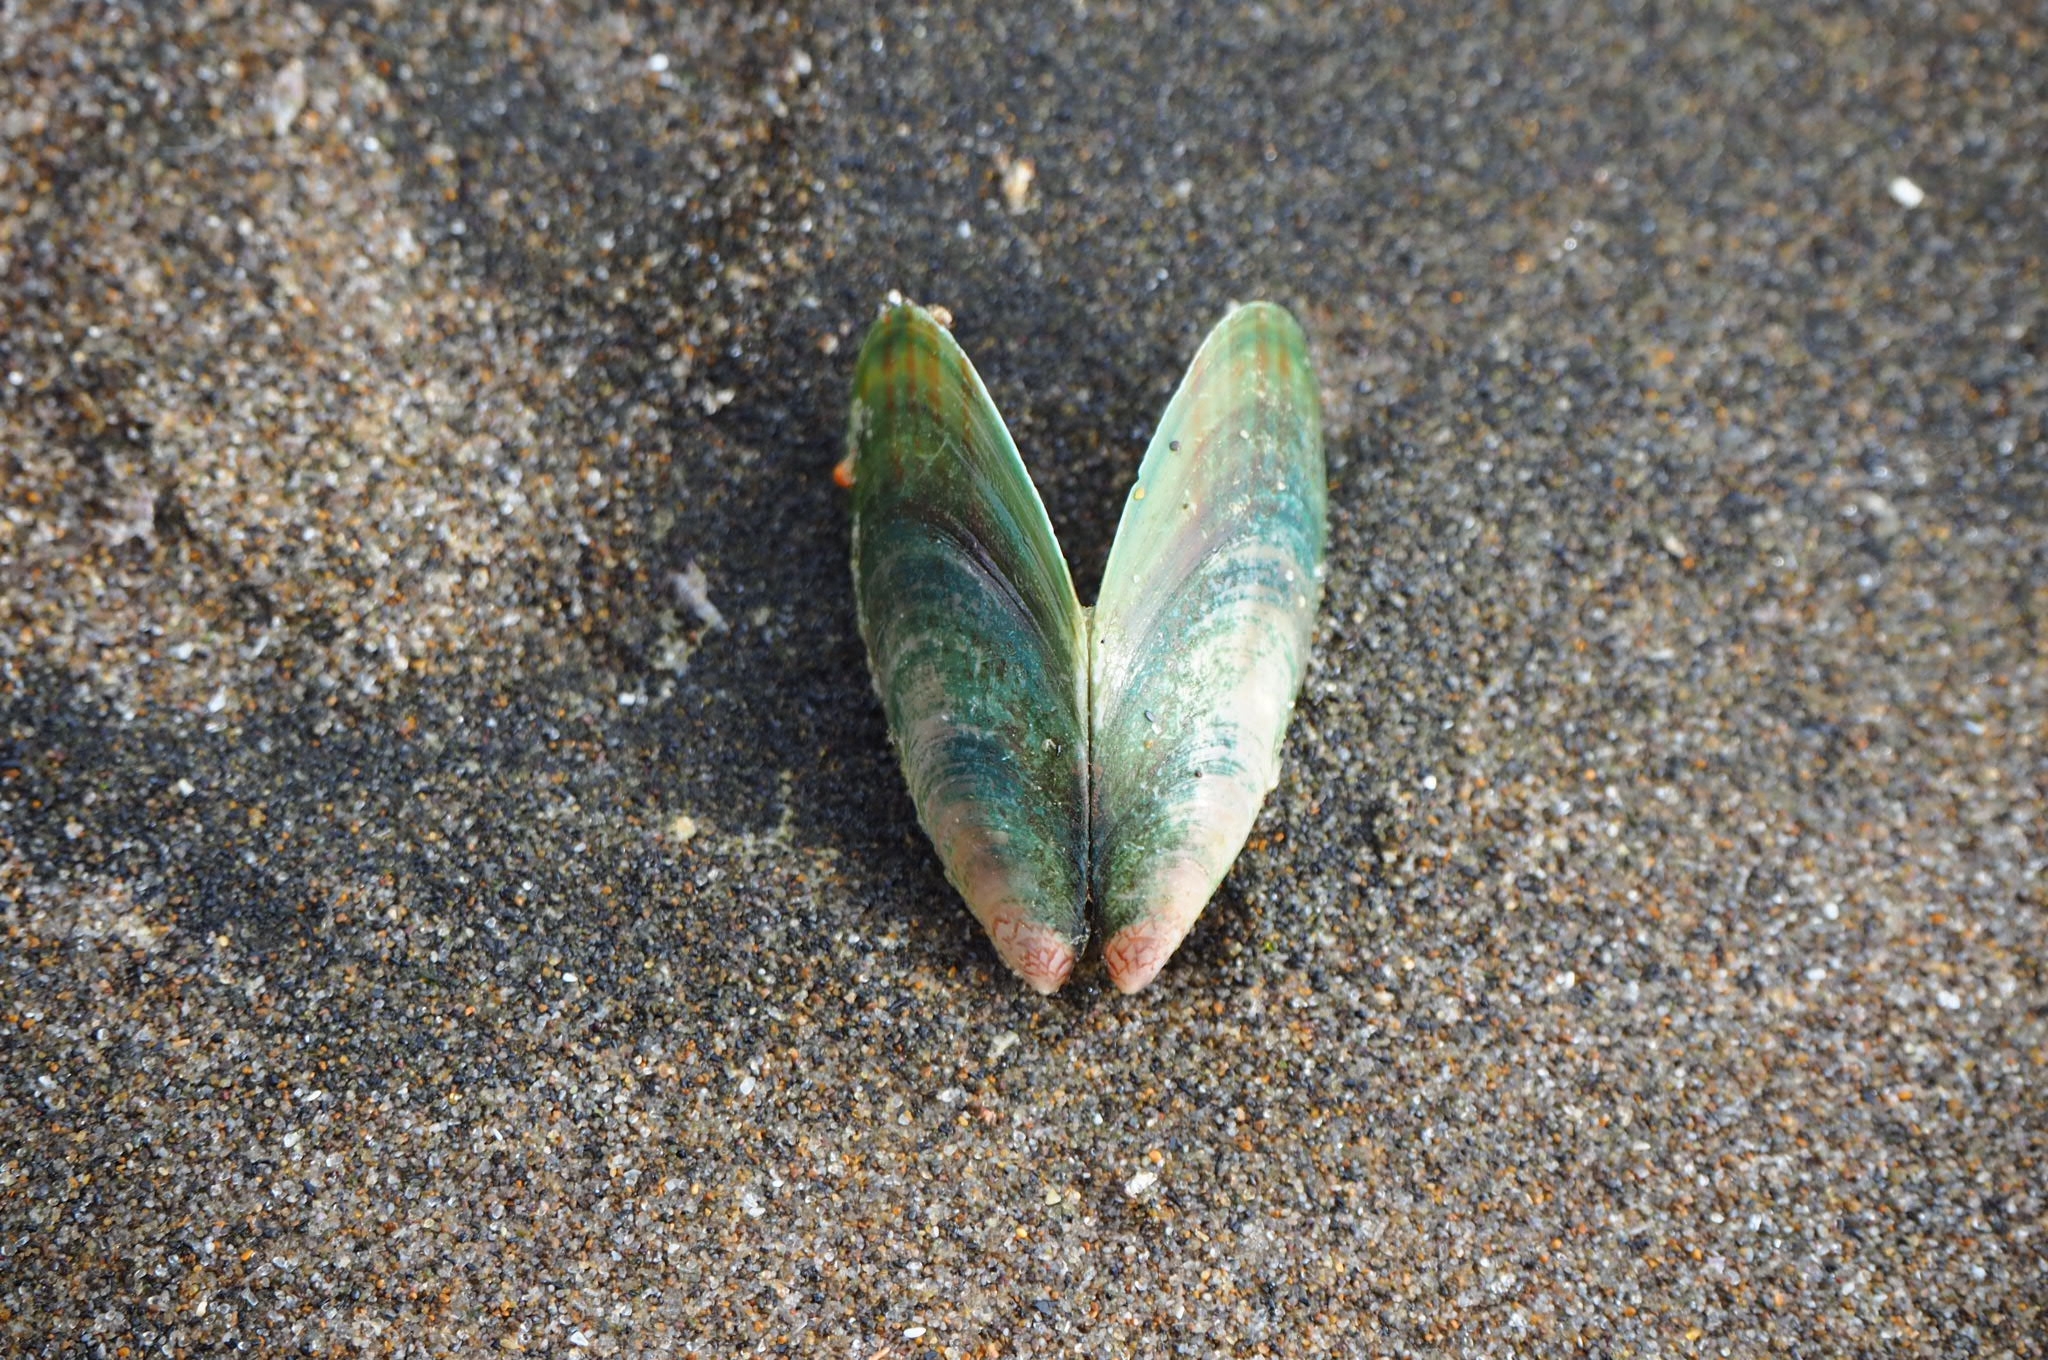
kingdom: Animalia
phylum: Mollusca
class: Bivalvia
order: Mytilida
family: Mytilidae
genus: Perna
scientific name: Perna canaliculus
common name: New zealand greenshelltm
